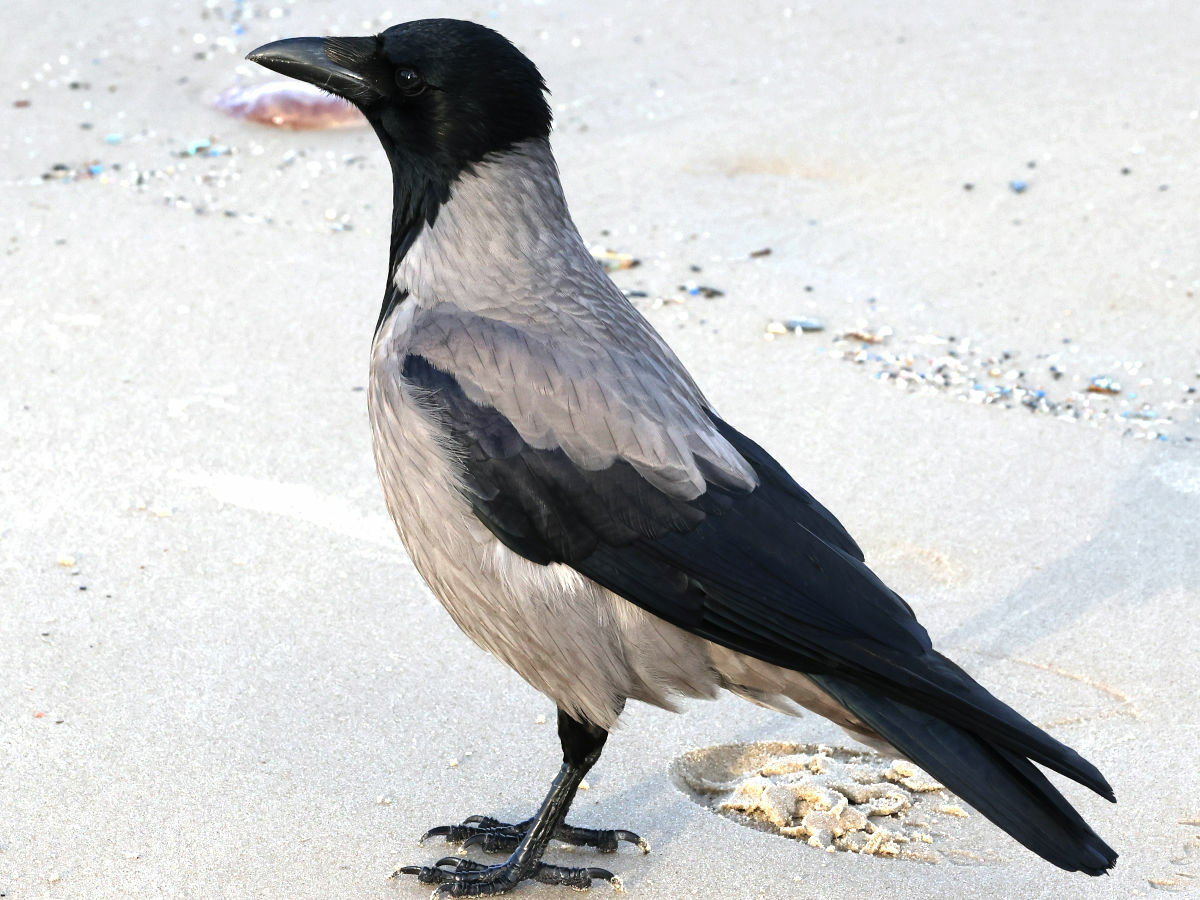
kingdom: Animalia
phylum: Chordata
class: Aves
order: Passeriformes
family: Corvidae
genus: Corvus
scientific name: Corvus cornix
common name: Hooded crow
